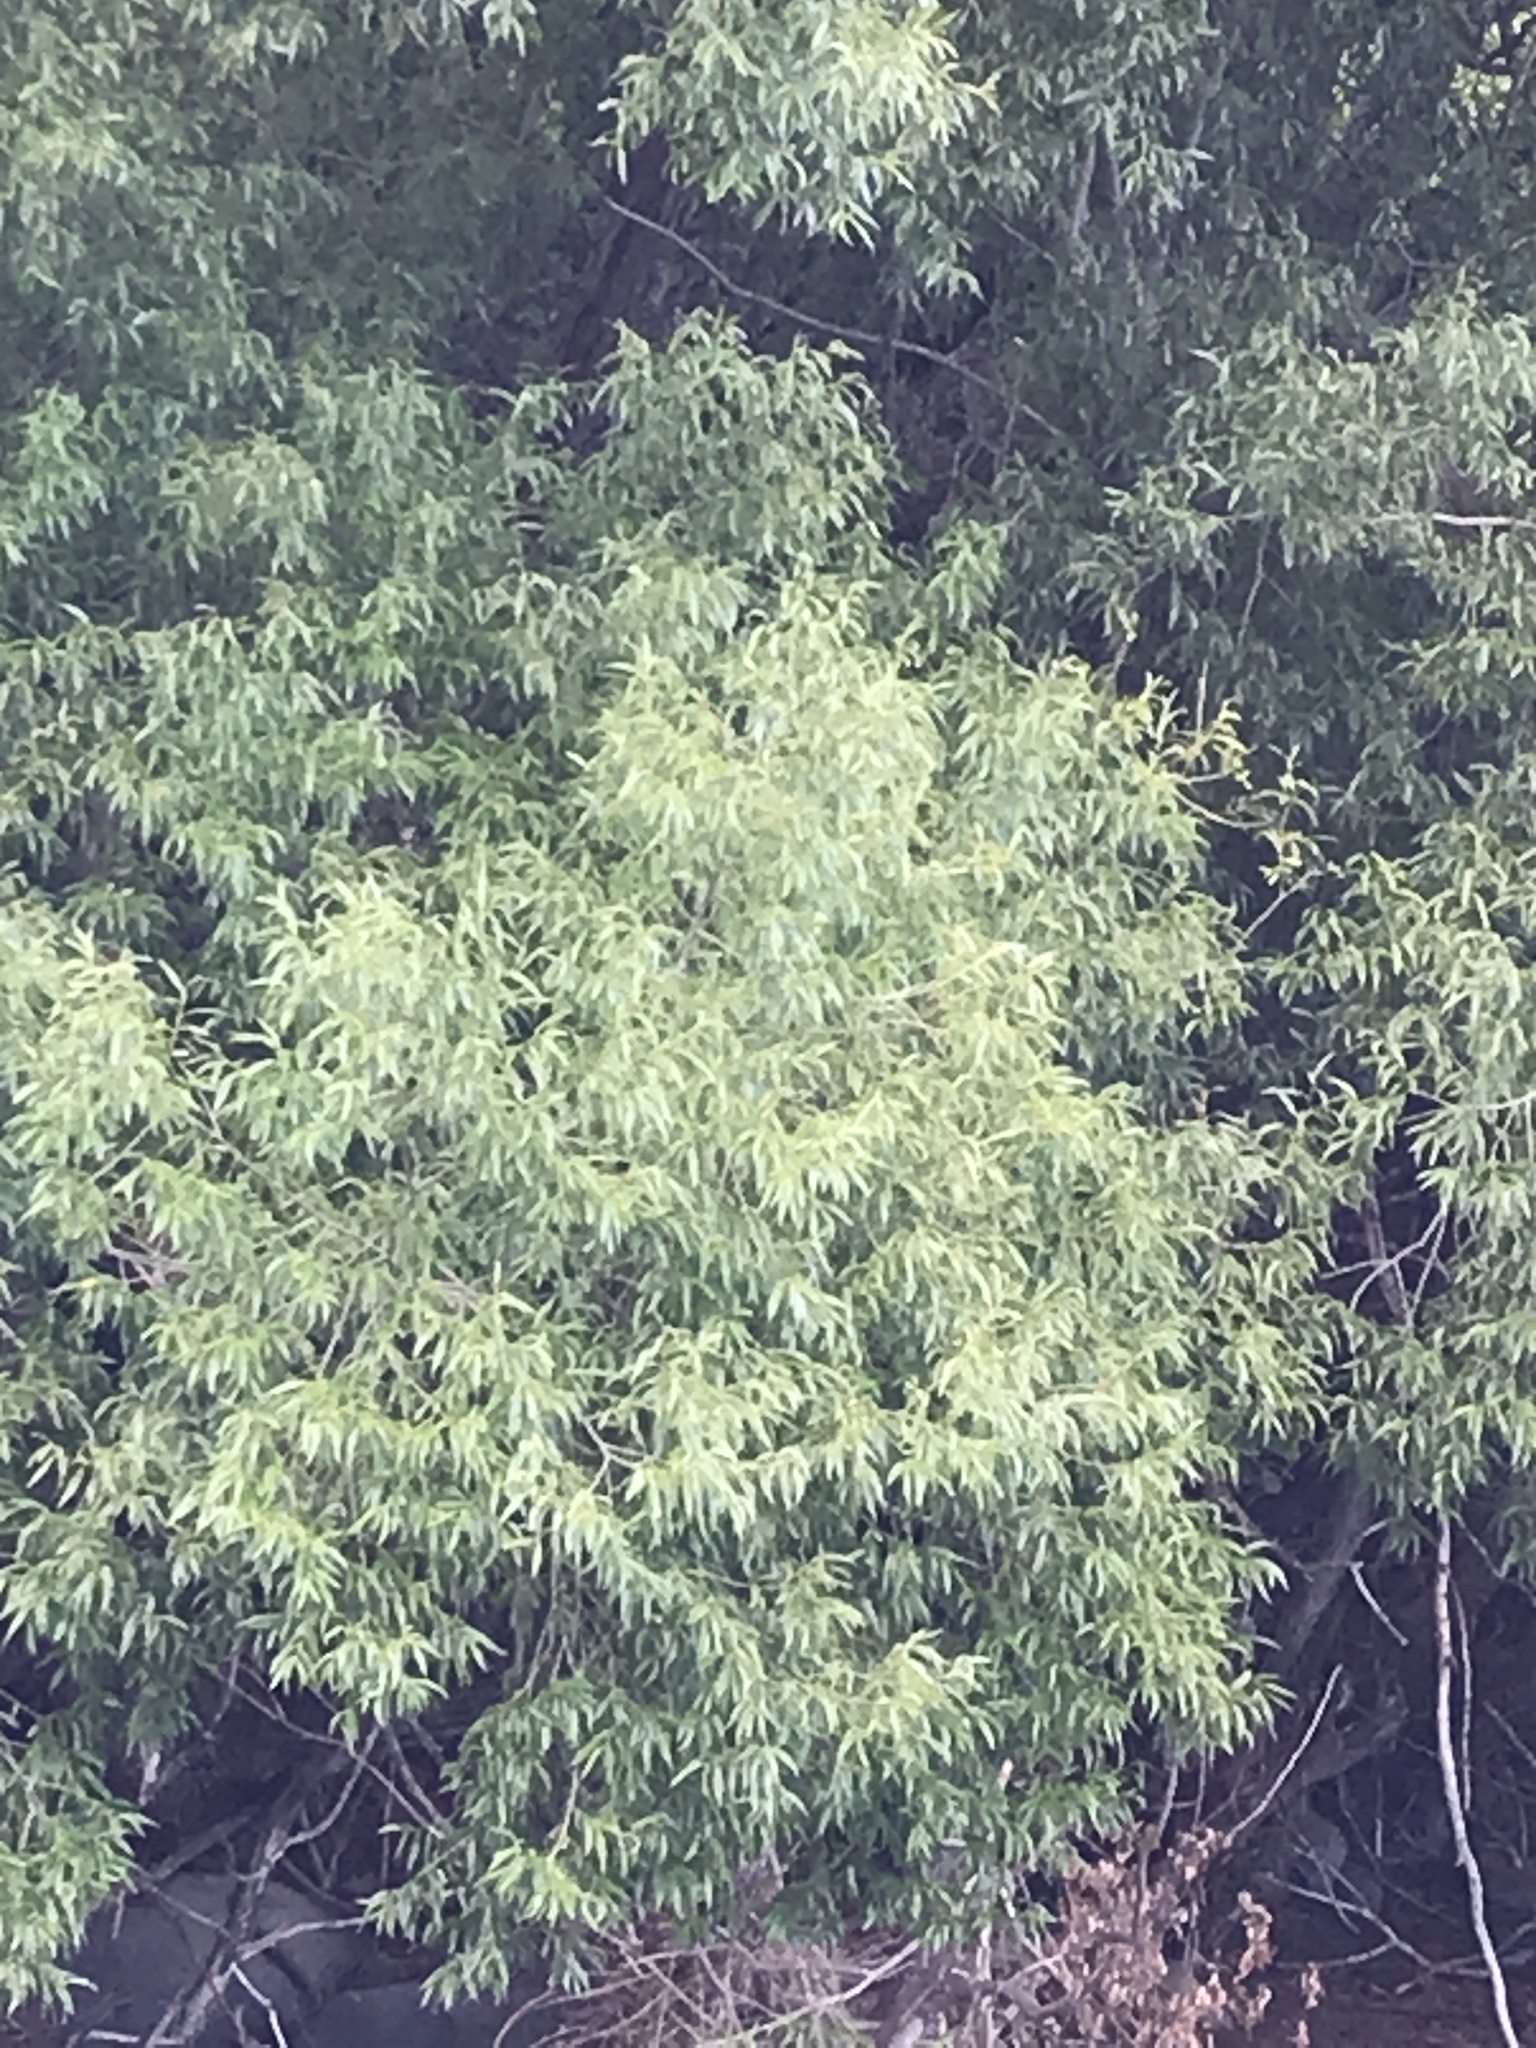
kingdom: Plantae
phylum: Tracheophyta
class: Magnoliopsida
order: Malpighiales
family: Salicaceae
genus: Salix
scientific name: Salix fragilis
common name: Crack willow
